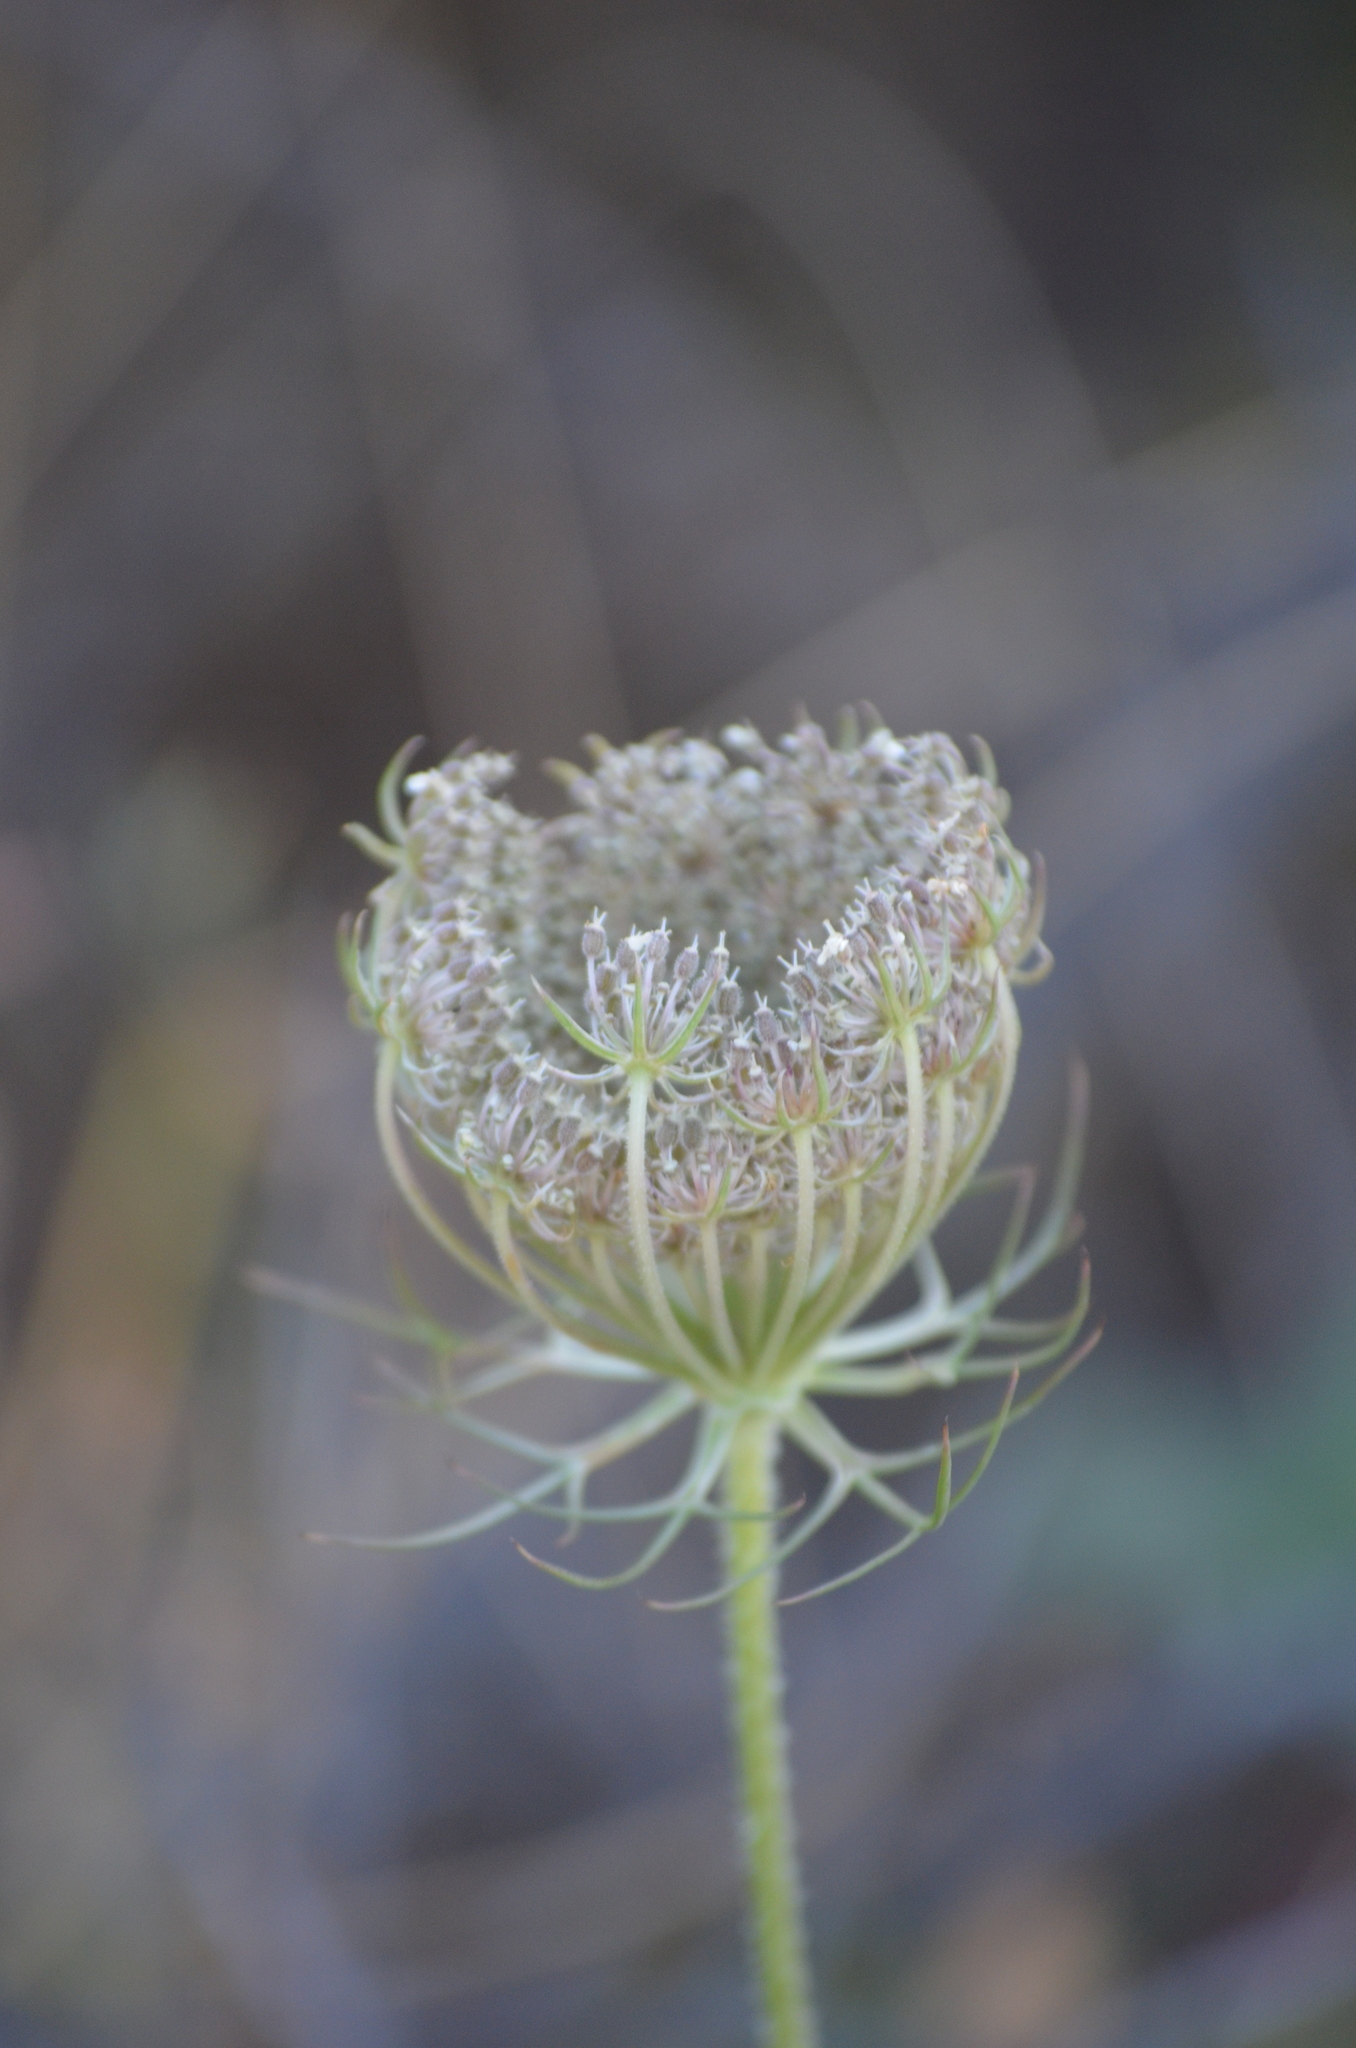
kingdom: Plantae
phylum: Tracheophyta
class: Magnoliopsida
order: Apiales
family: Apiaceae
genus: Daucus
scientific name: Daucus carota
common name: Wild carrot
